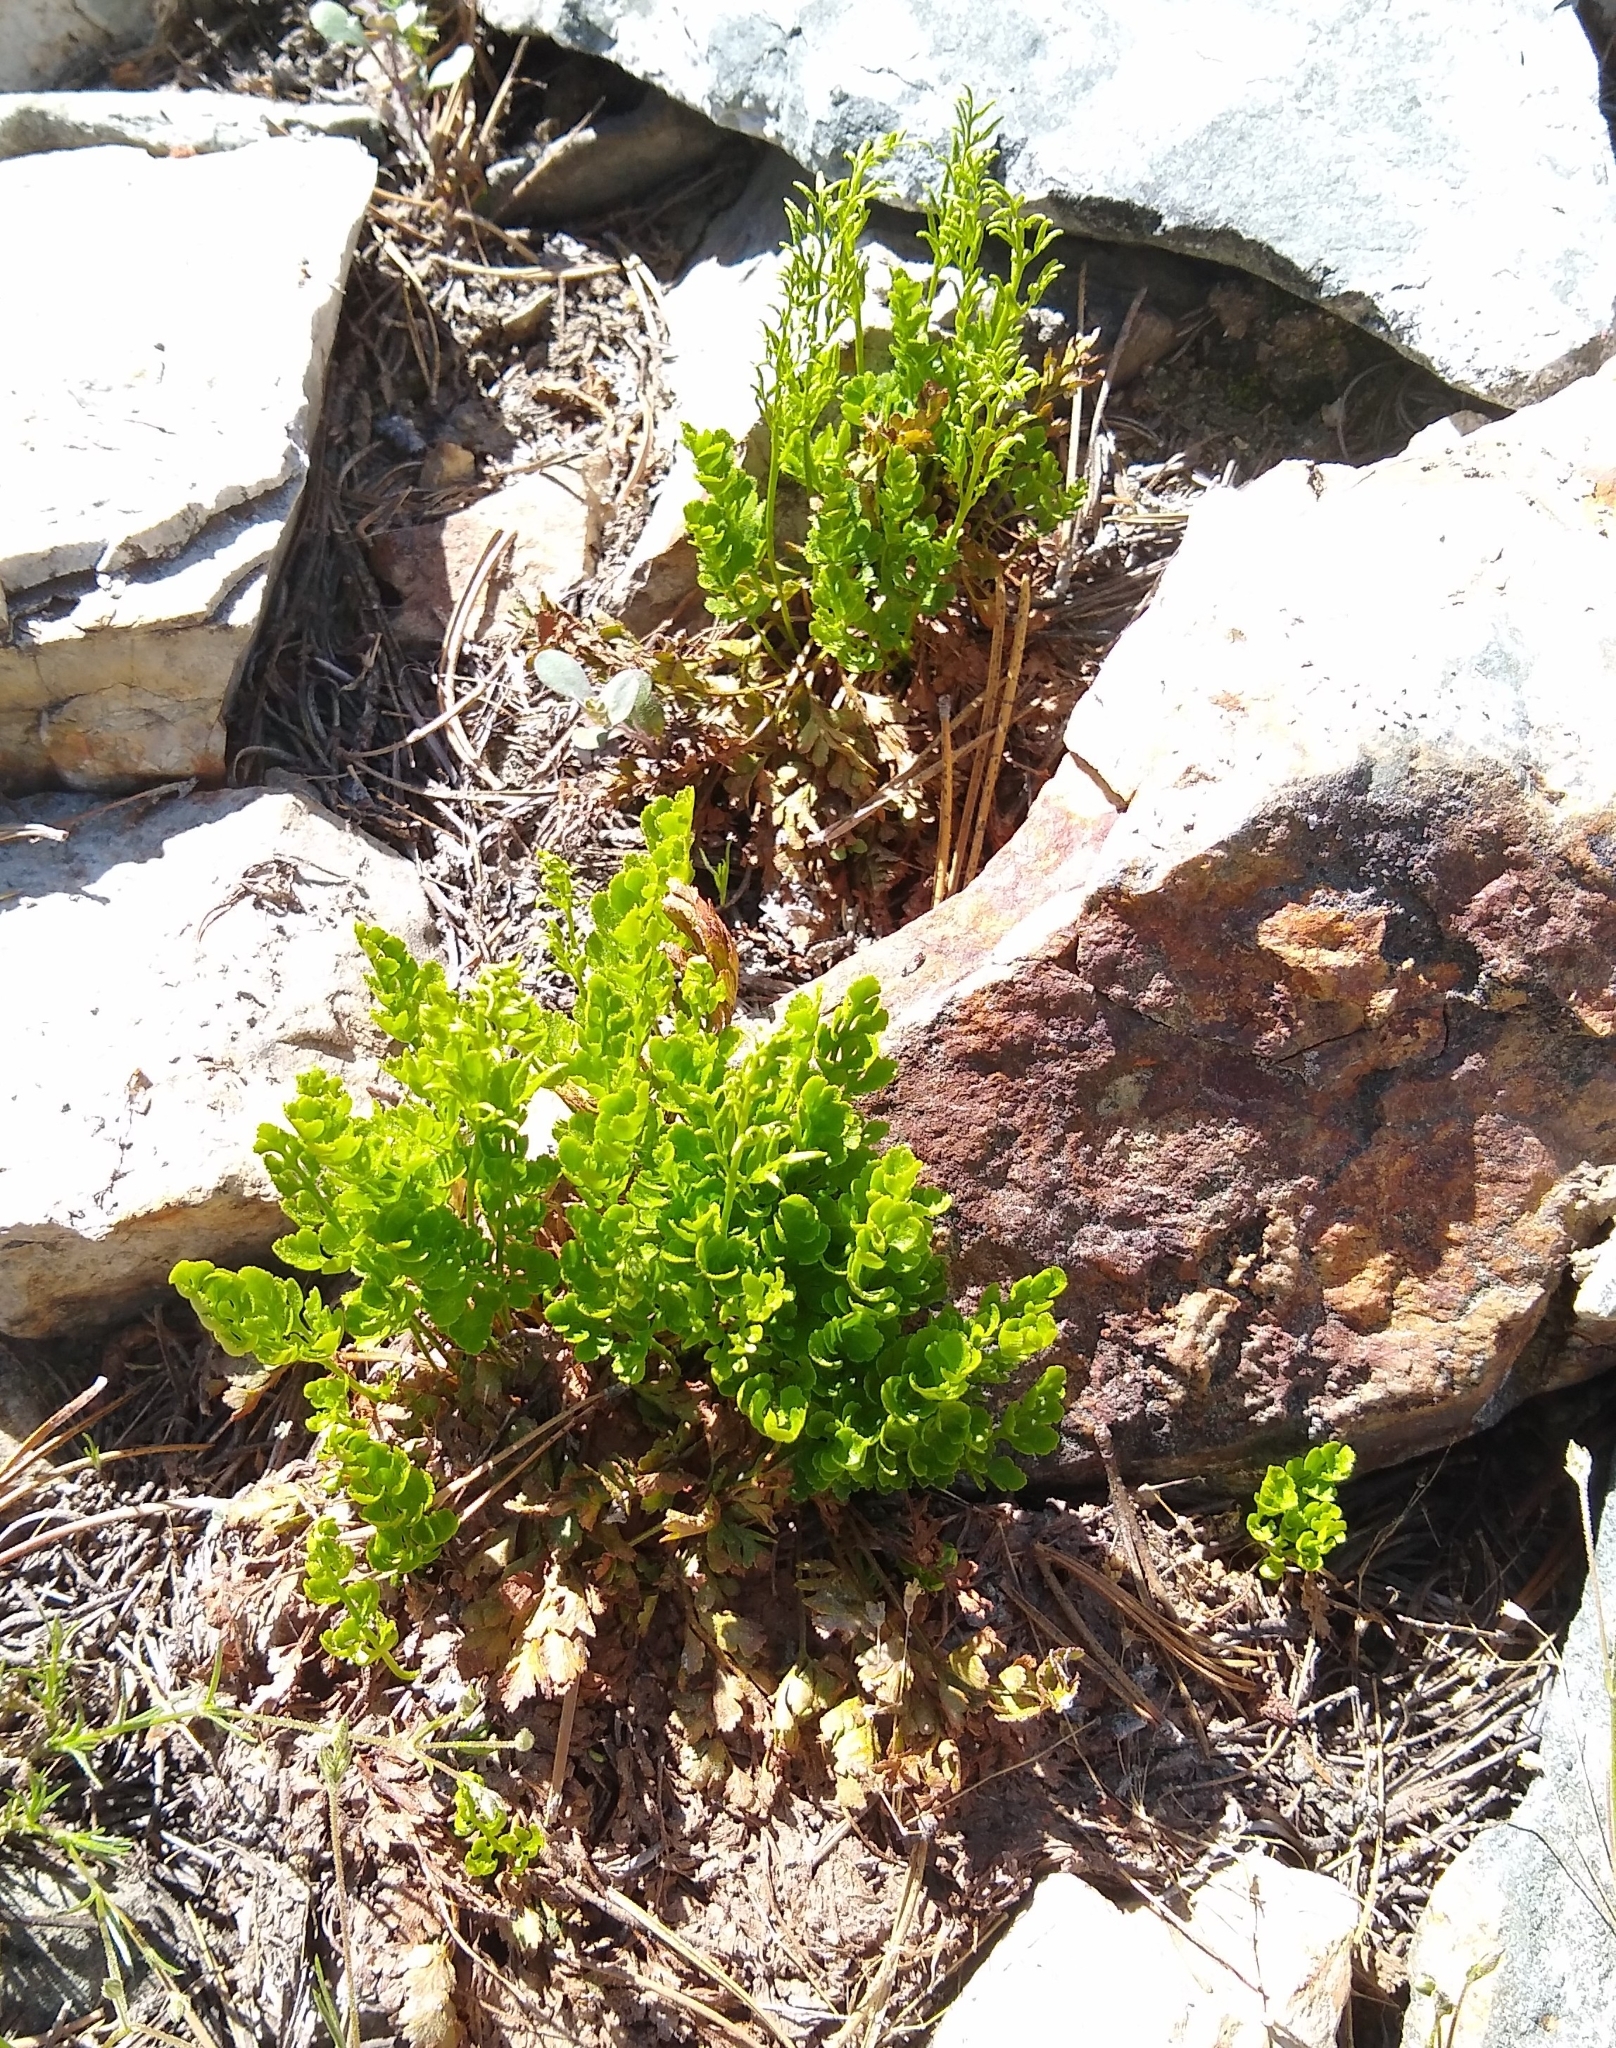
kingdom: Plantae
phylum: Tracheophyta
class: Polypodiopsida
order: Polypodiales
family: Pteridaceae
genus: Cryptogramma
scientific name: Cryptogramma acrostichoides
